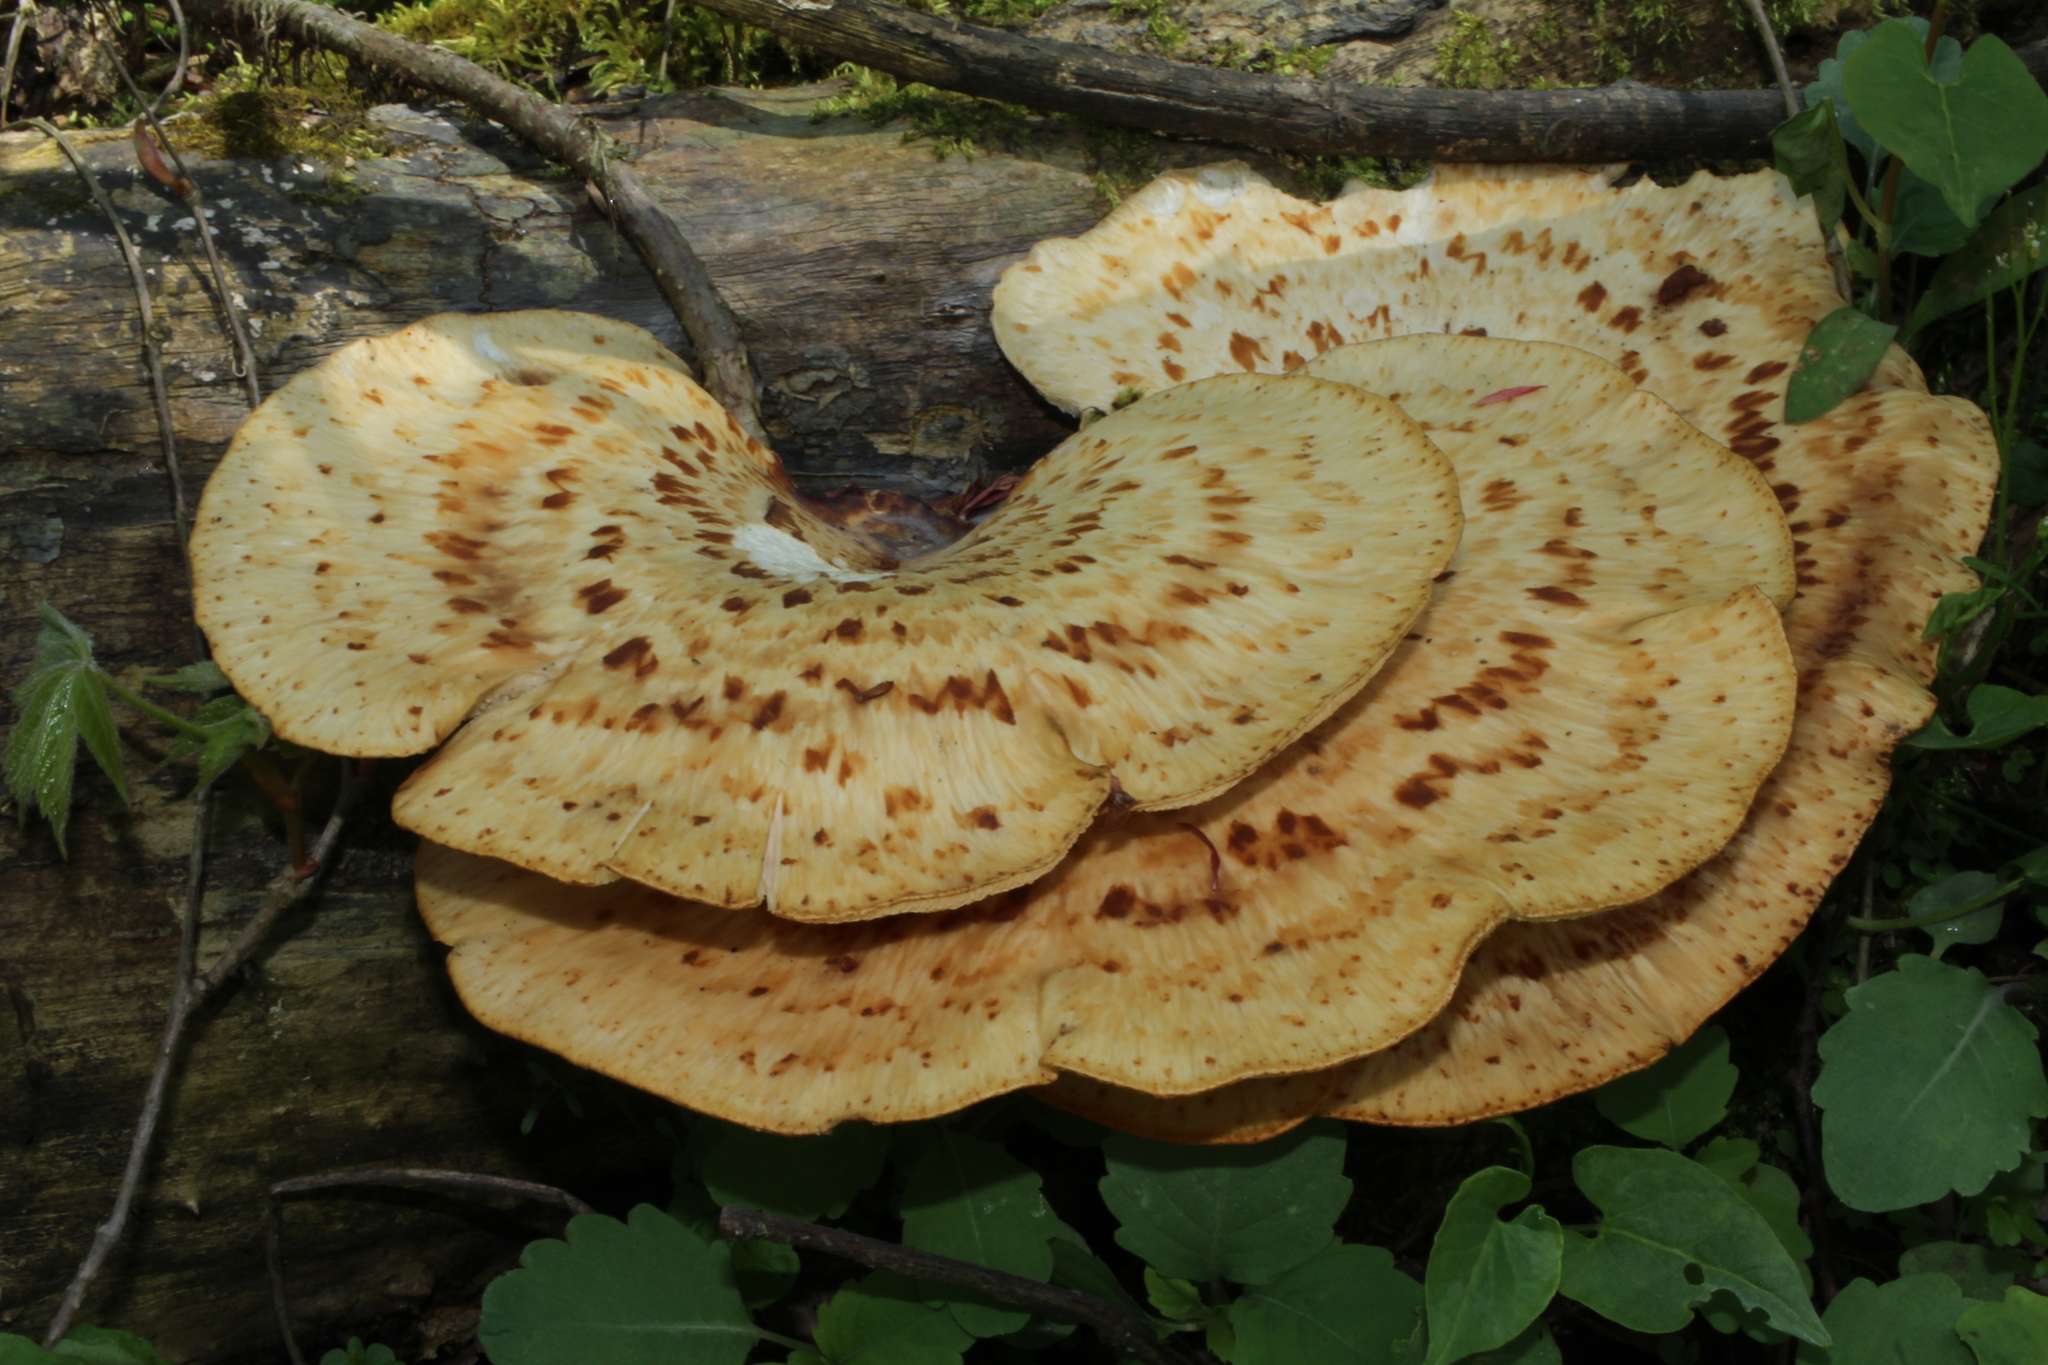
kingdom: Fungi
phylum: Basidiomycota
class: Agaricomycetes
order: Polyporales
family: Polyporaceae
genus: Cerioporus
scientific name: Cerioporus squamosus
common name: Dryad's saddle
